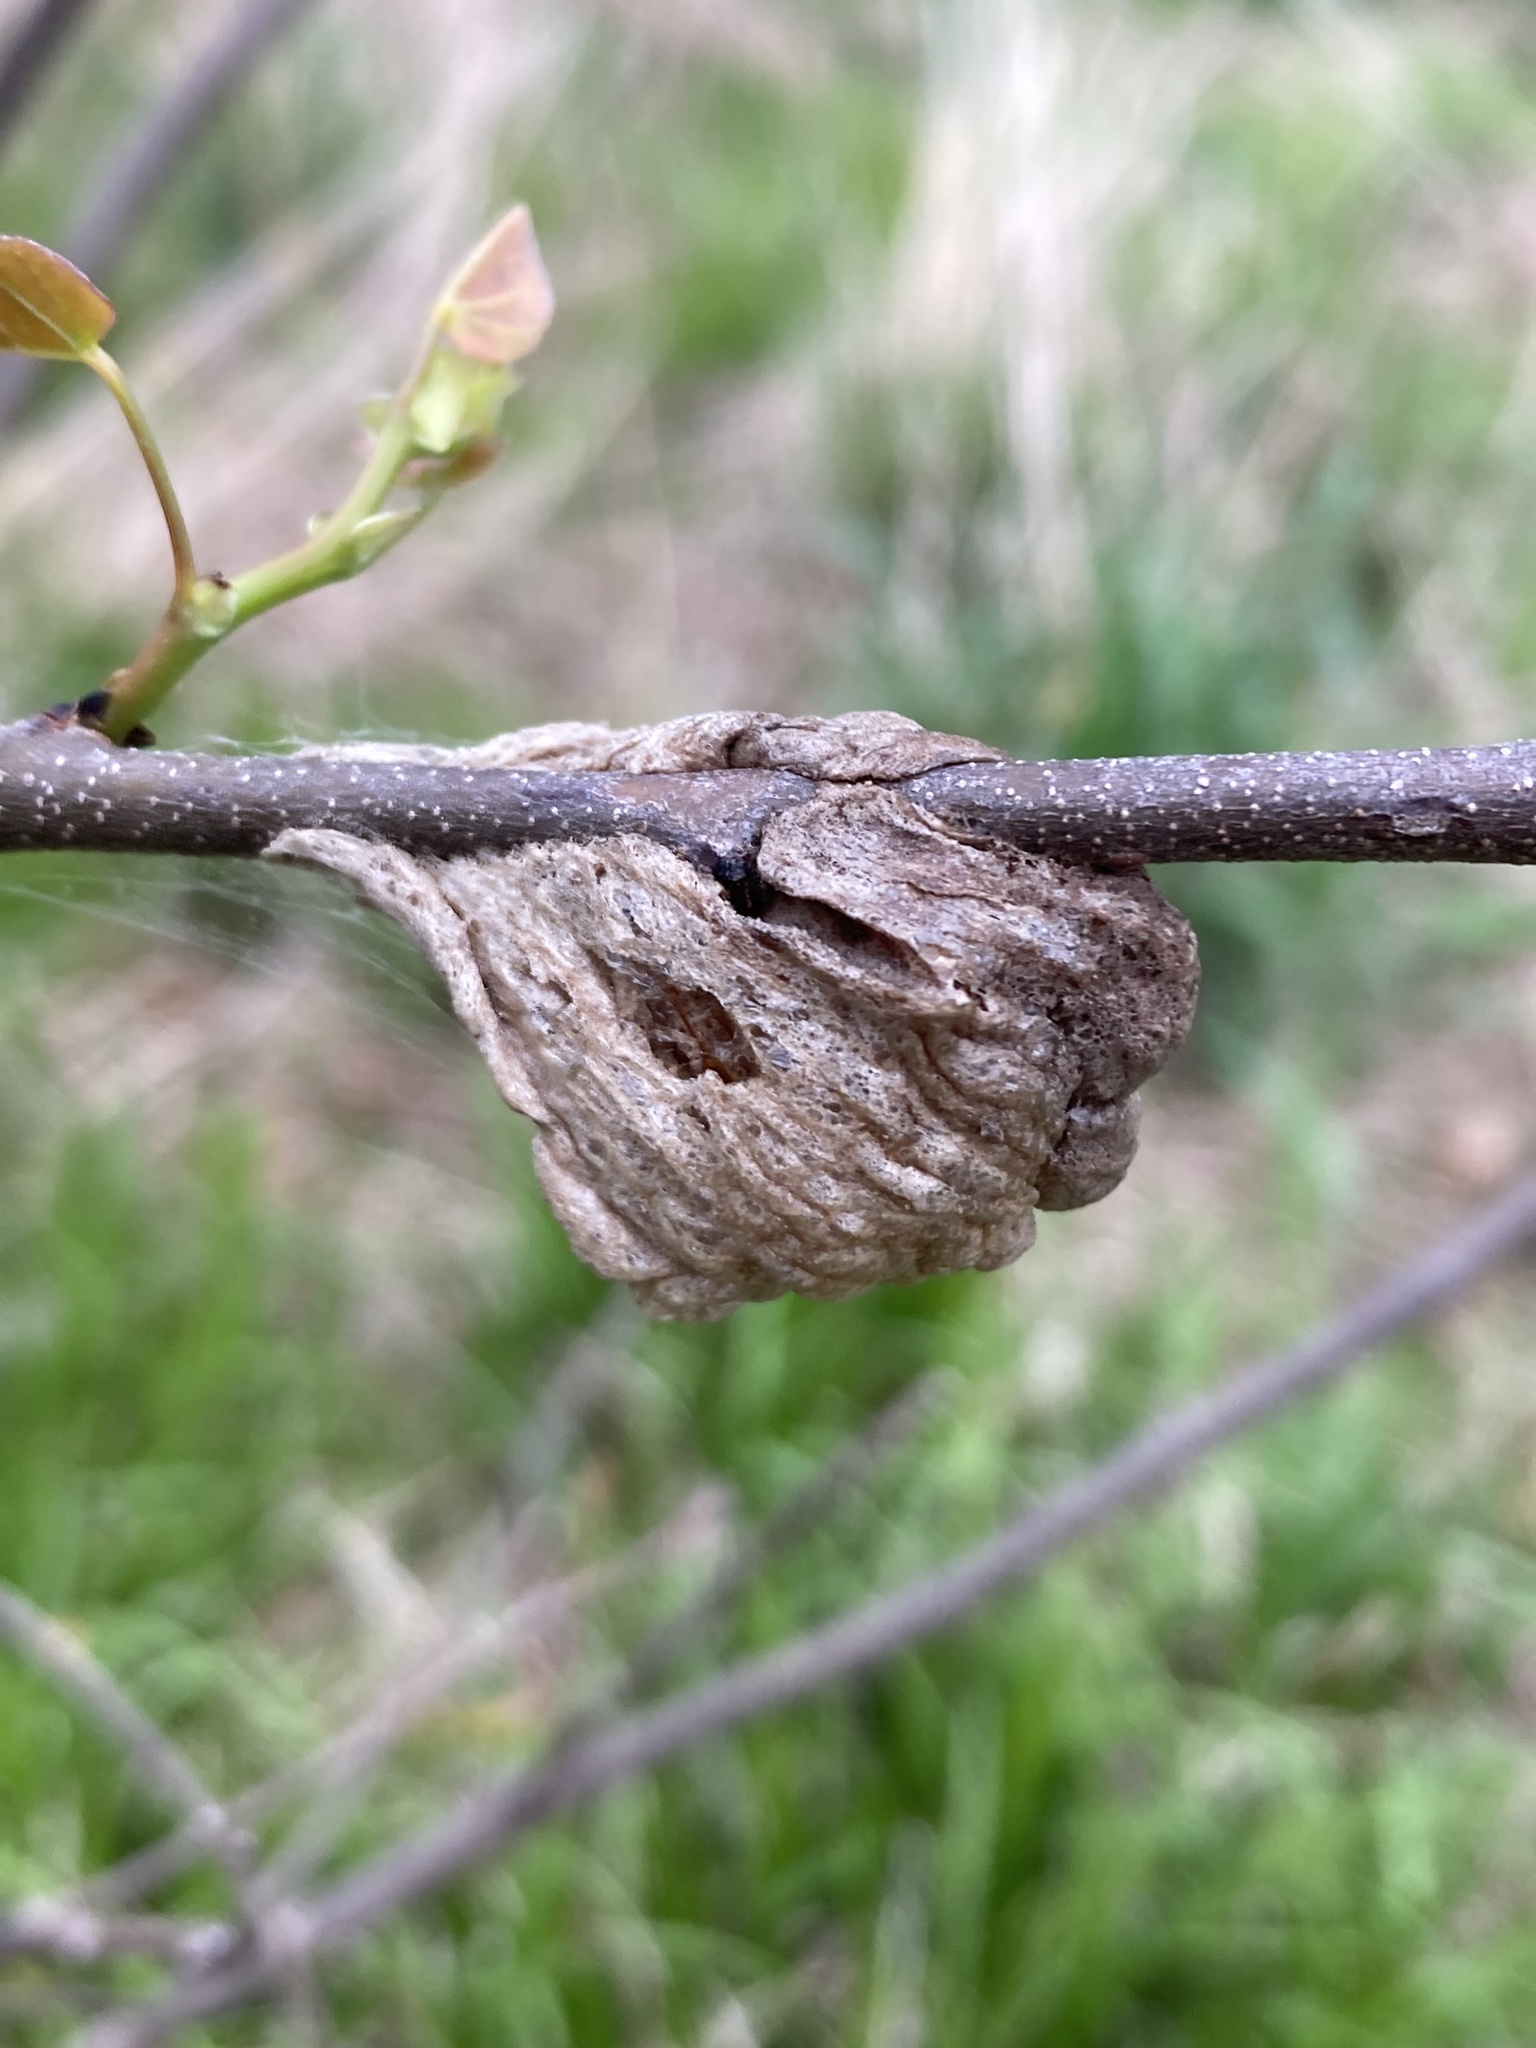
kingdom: Animalia
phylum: Arthropoda
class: Insecta
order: Mantodea
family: Mantidae
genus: Tenodera
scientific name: Tenodera sinensis
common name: Chinese mantis
